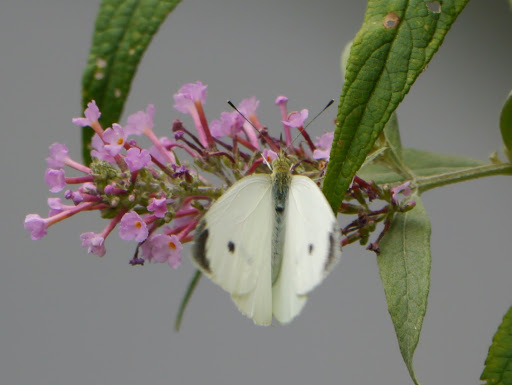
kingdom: Animalia
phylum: Arthropoda
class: Insecta
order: Lepidoptera
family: Pieridae
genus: Pieris
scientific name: Pieris rapae
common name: Small white
